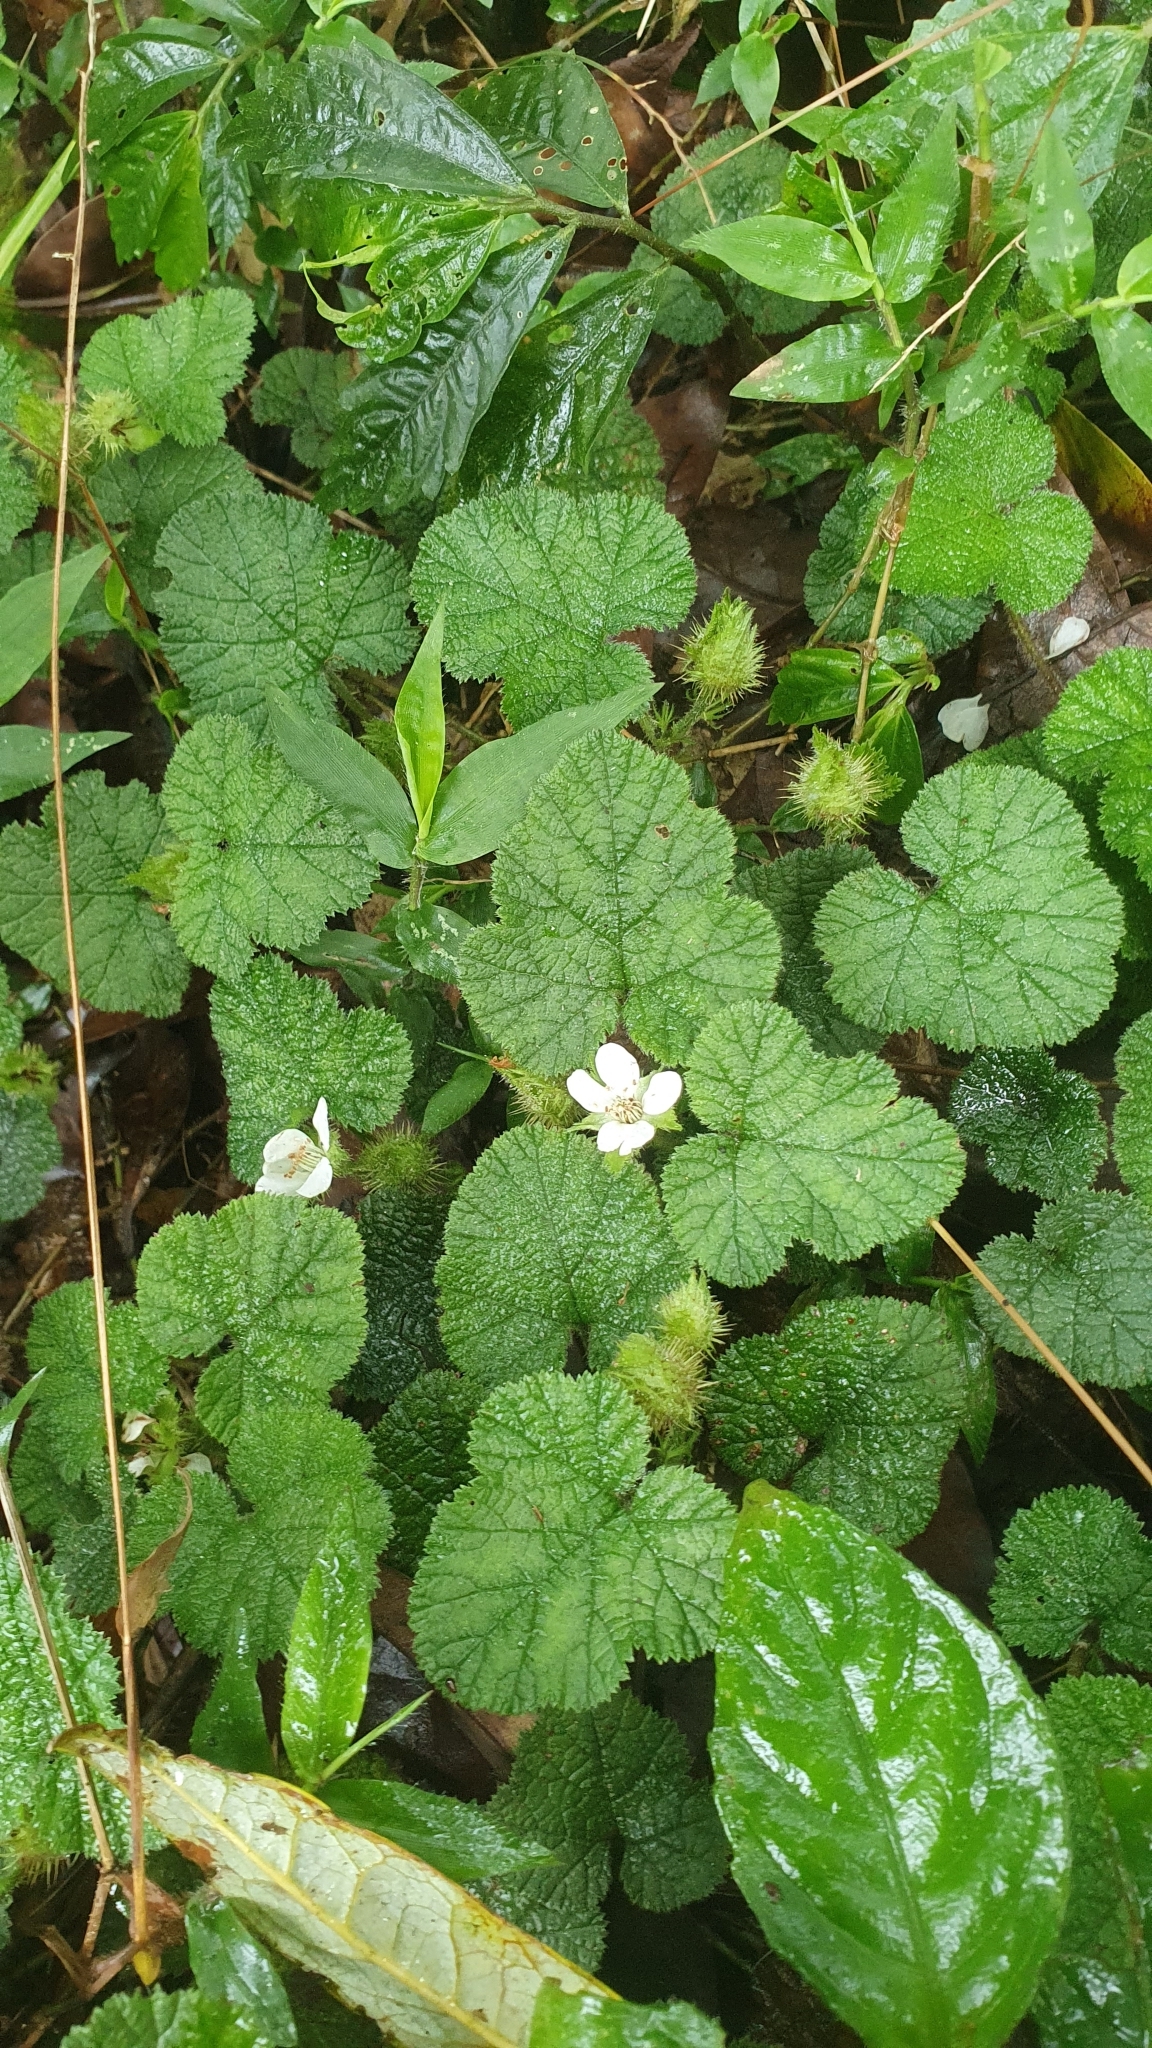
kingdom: Plantae
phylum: Tracheophyta
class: Magnoliopsida
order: Rosales
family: Rosaceae
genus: Rubus
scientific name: Rubus pectinellus
